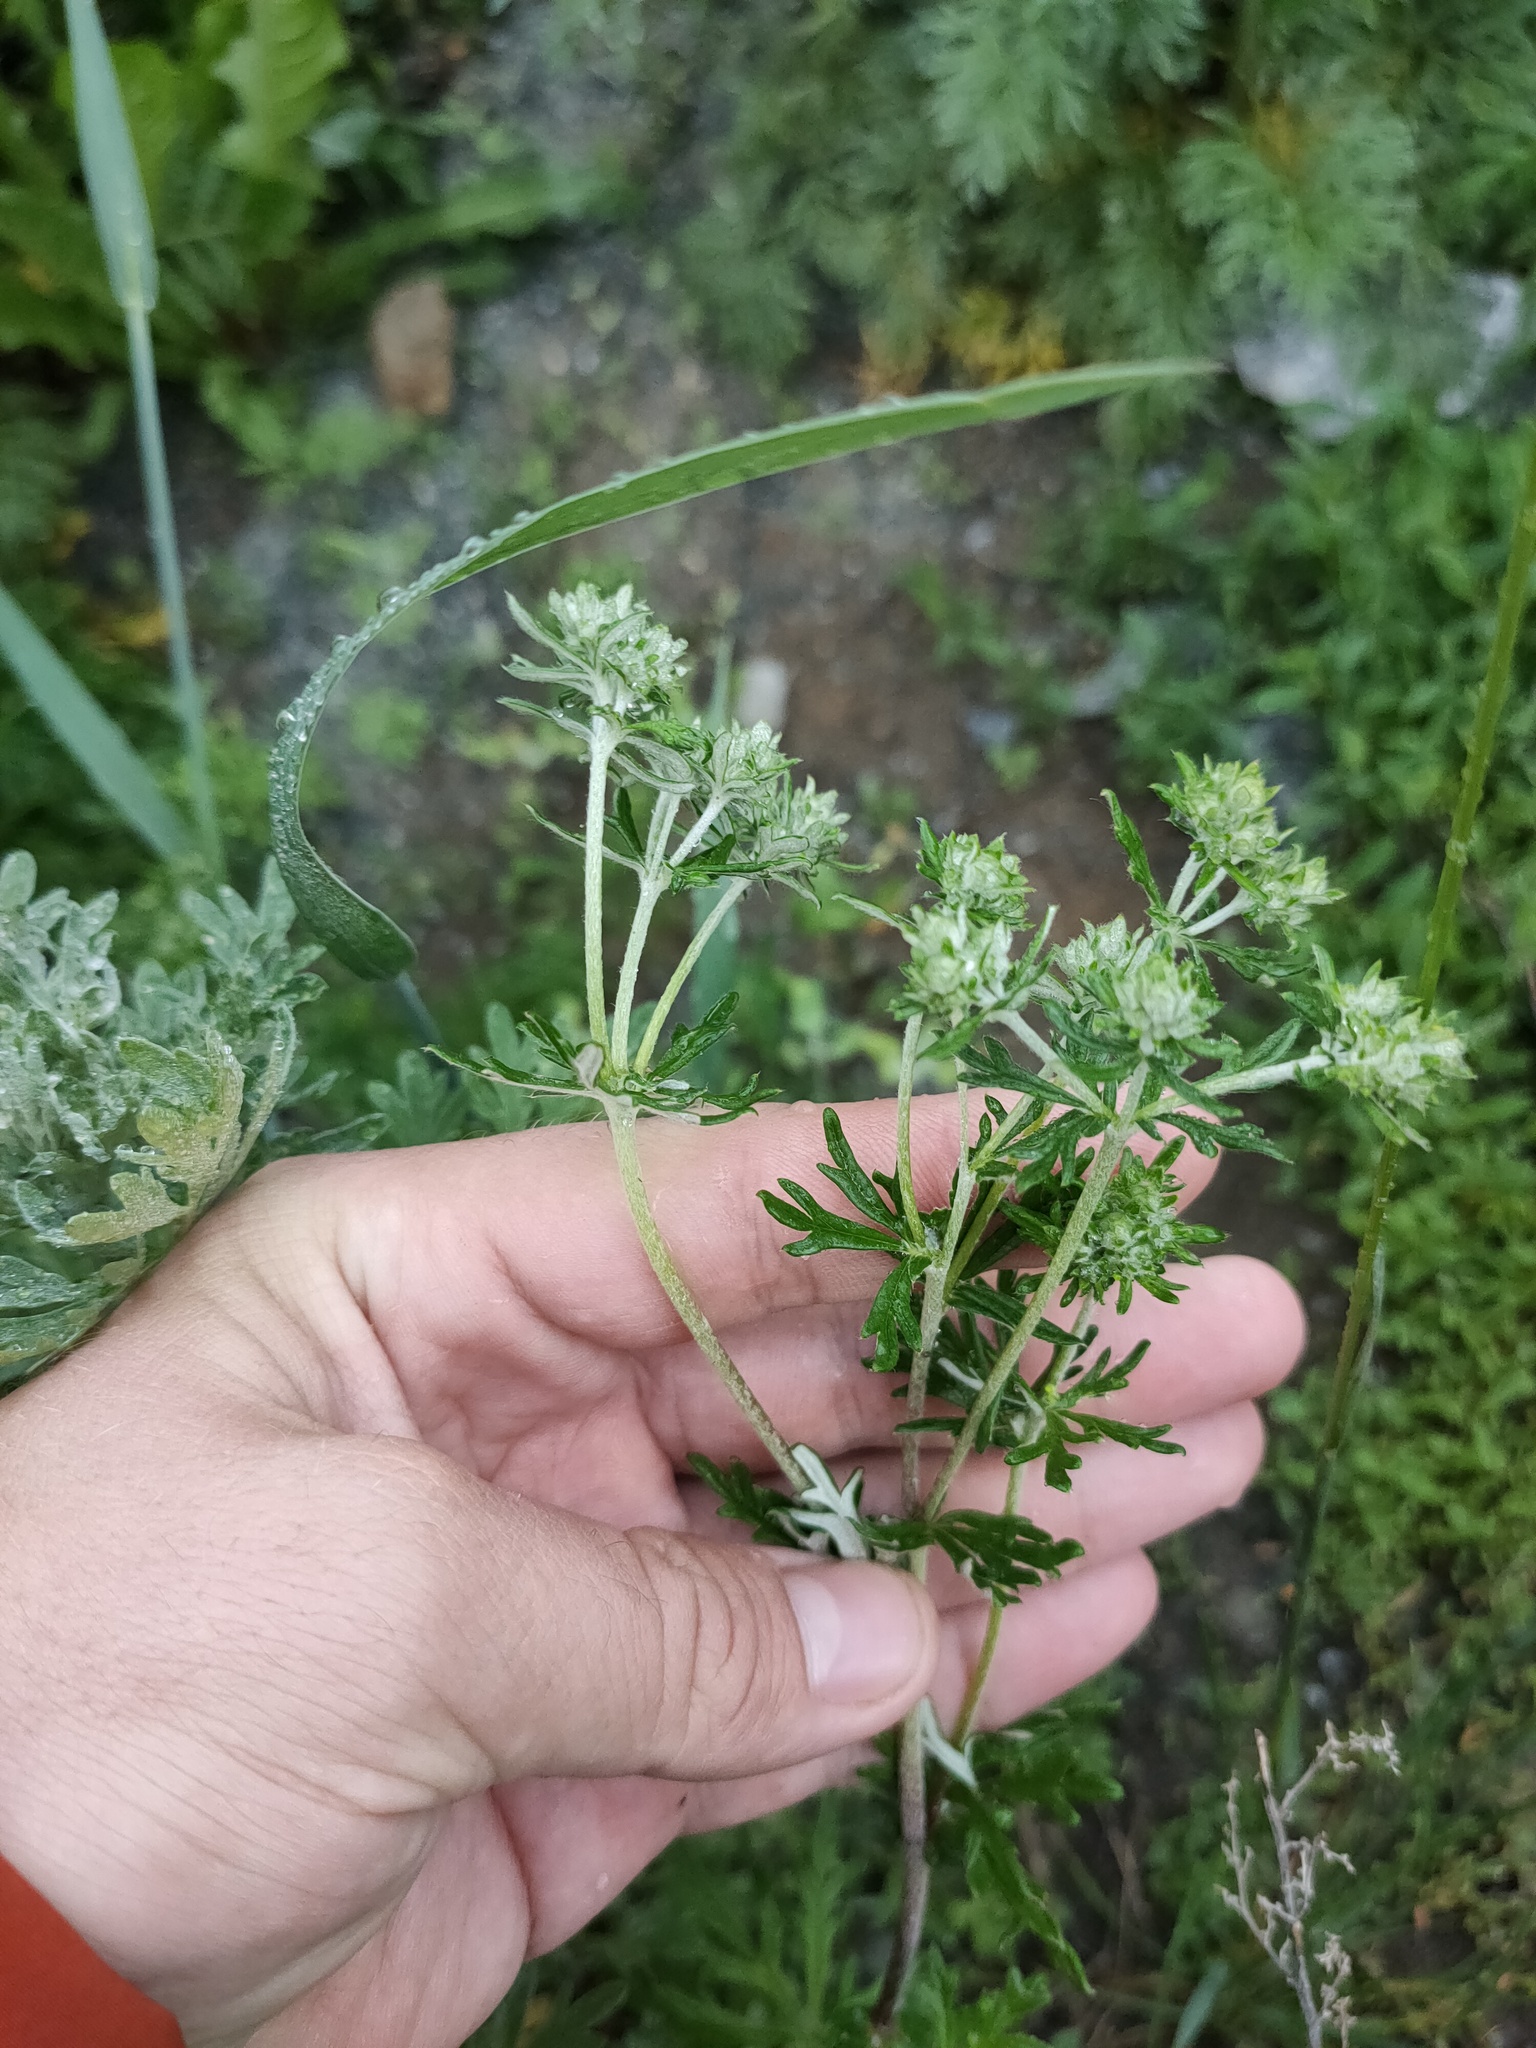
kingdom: Plantae
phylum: Tracheophyta
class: Magnoliopsida
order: Rosales
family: Rosaceae
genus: Potentilla
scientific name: Potentilla argentea
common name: Hoary cinquefoil
